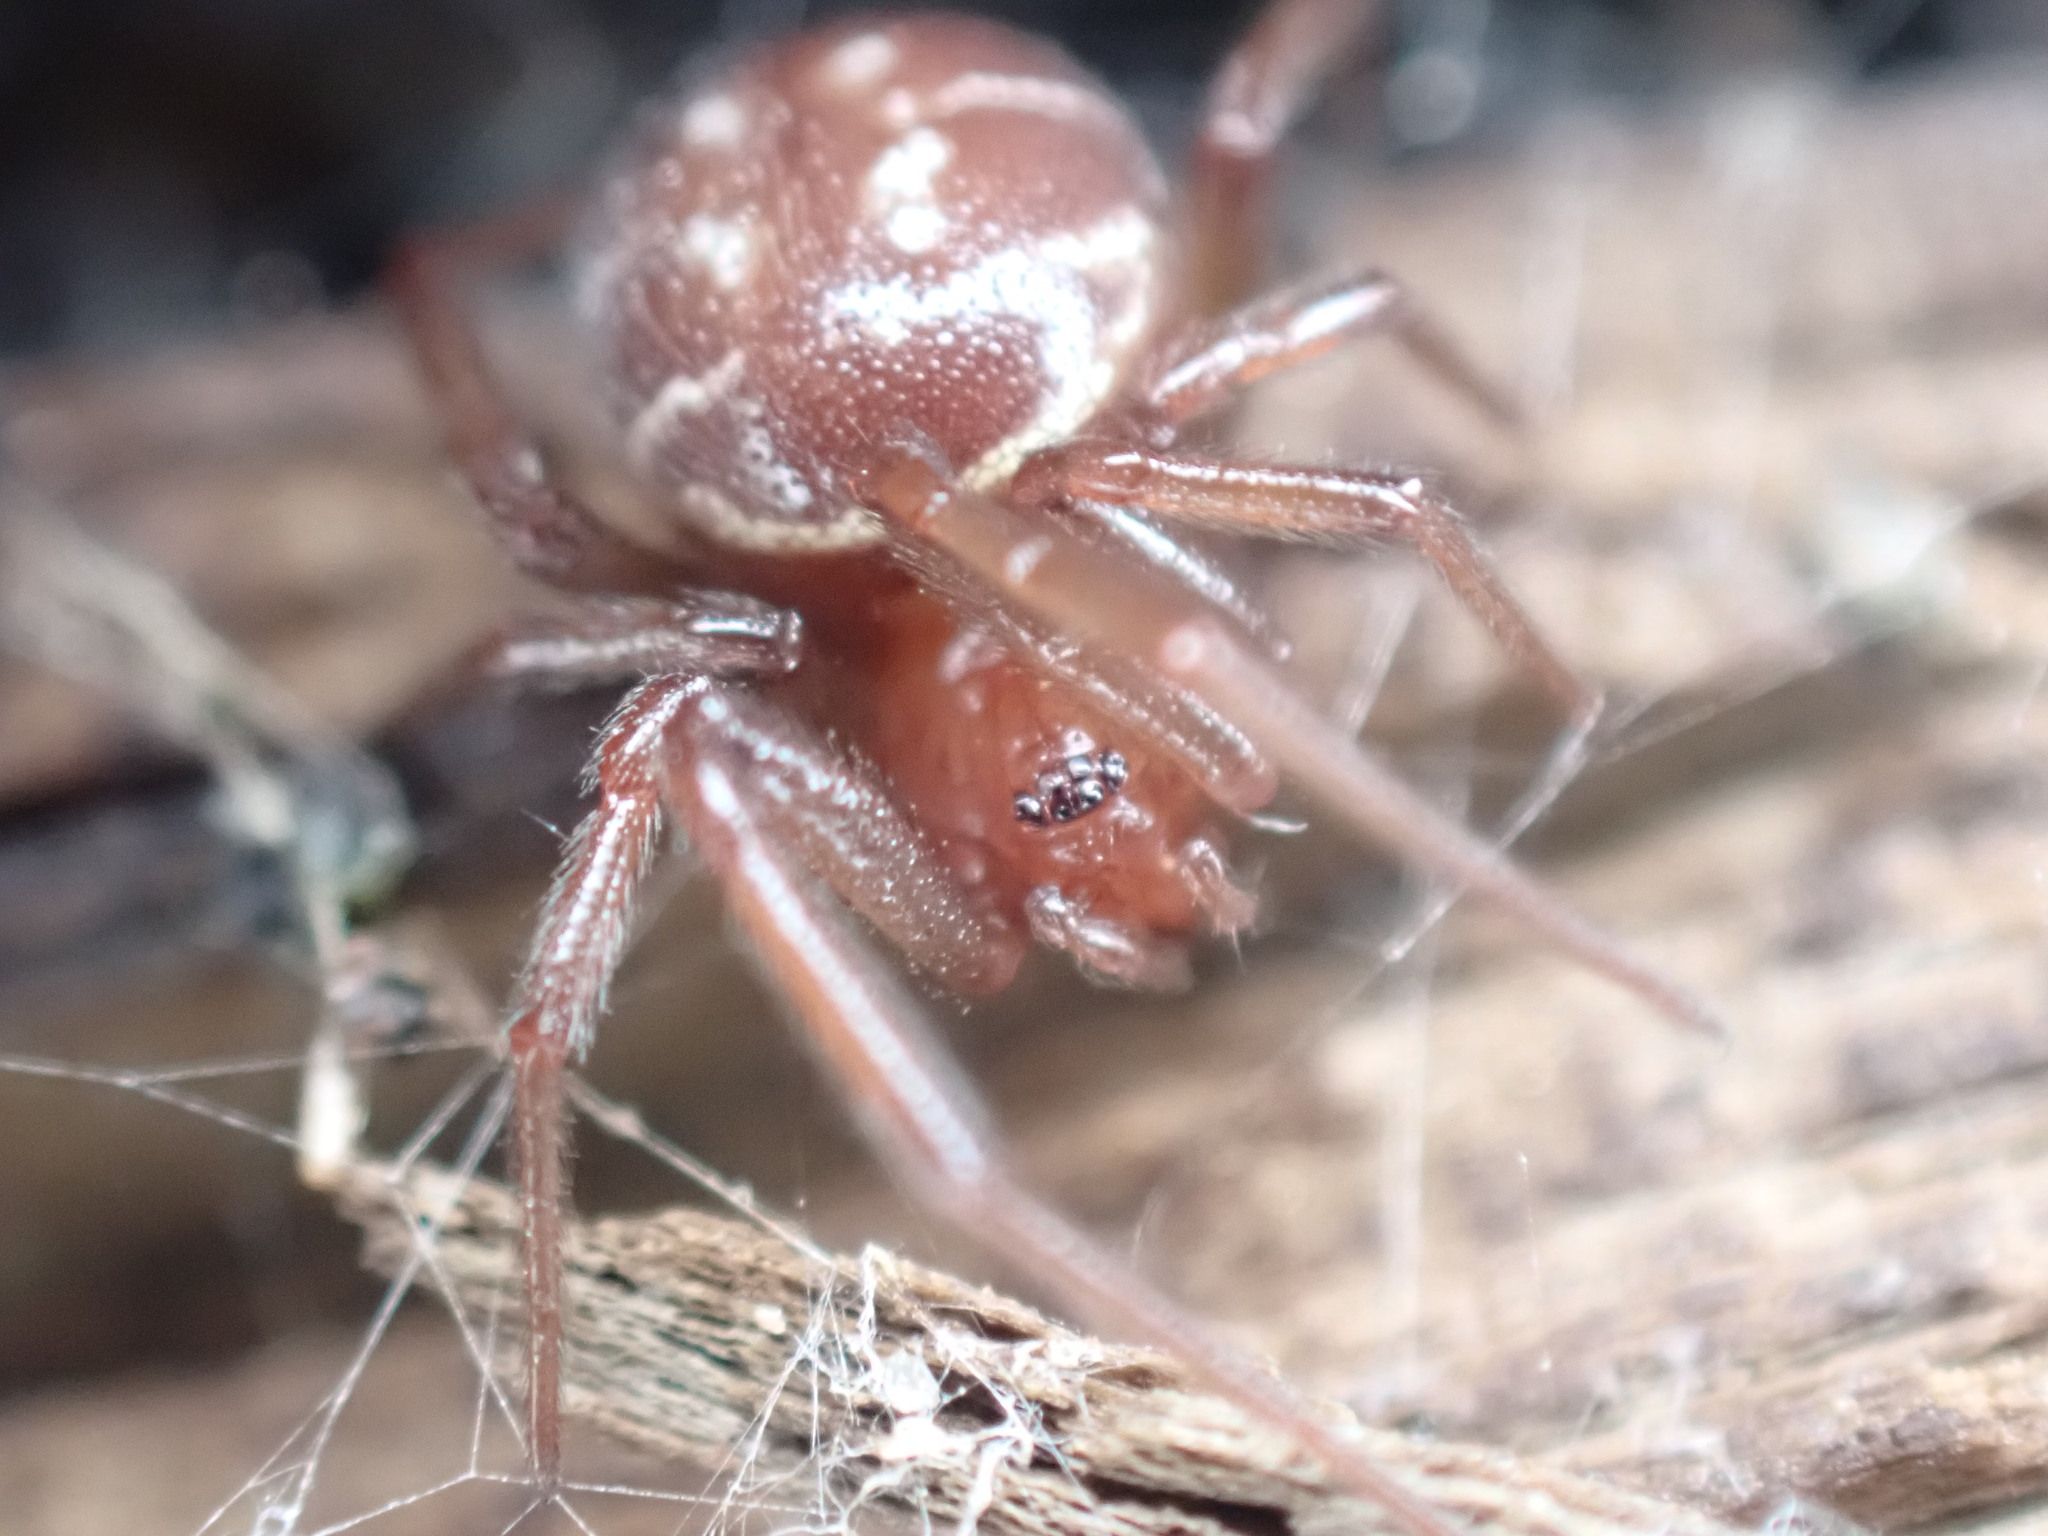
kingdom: Animalia
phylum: Arthropoda
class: Arachnida
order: Araneae
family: Theridiidae
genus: Steatoda
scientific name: Steatoda capensis
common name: Cobweb weaver
